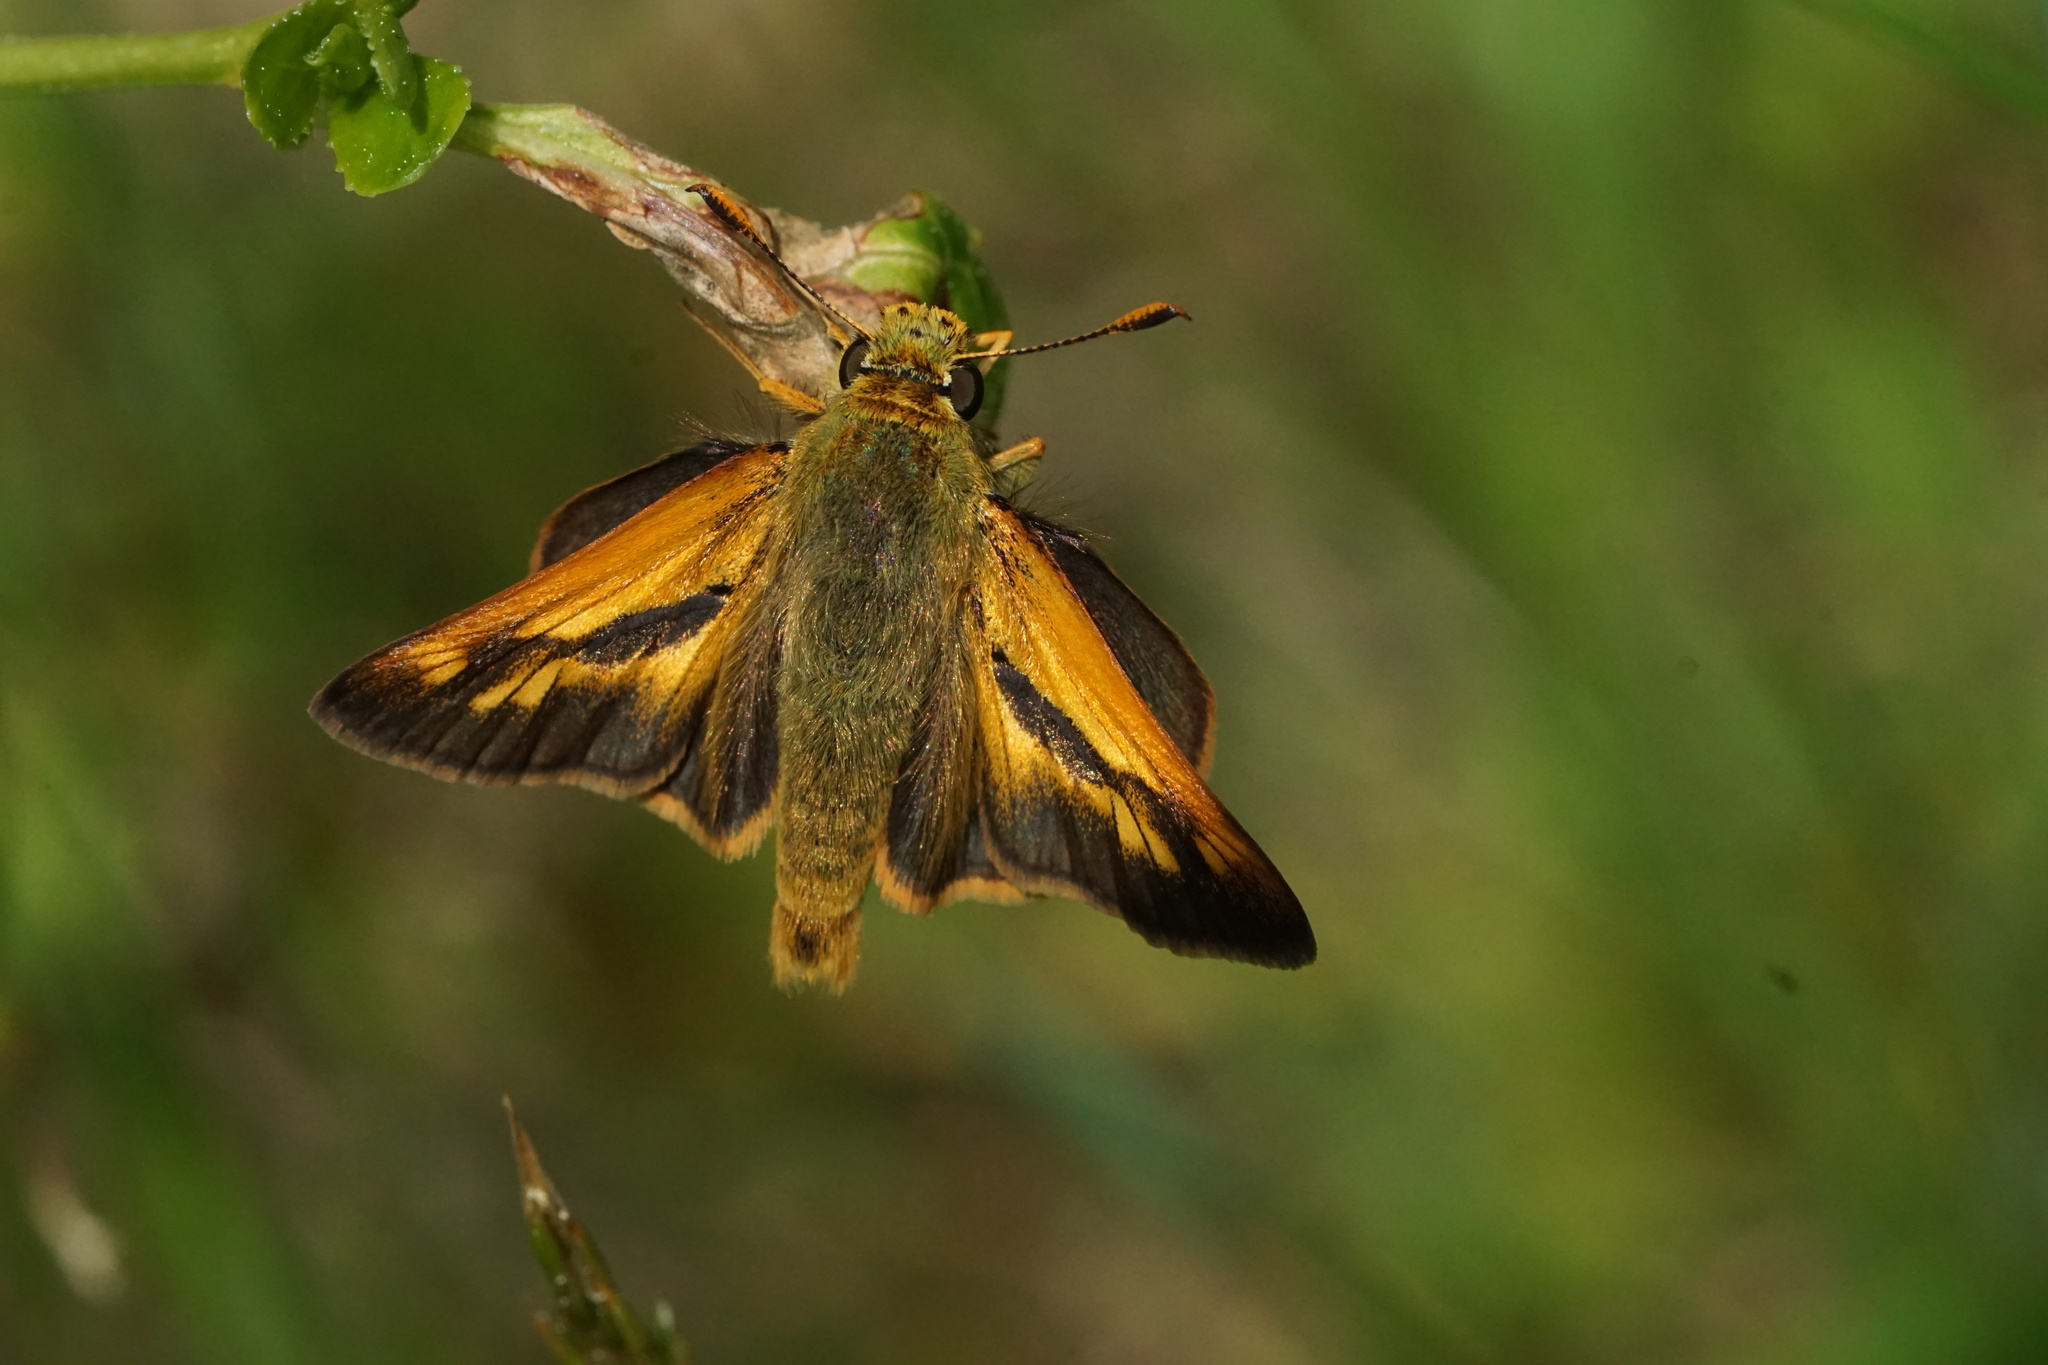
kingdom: Animalia
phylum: Arthropoda
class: Insecta
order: Lepidoptera
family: Hesperiidae
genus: Polites
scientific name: Polites mystic
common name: Long dash
